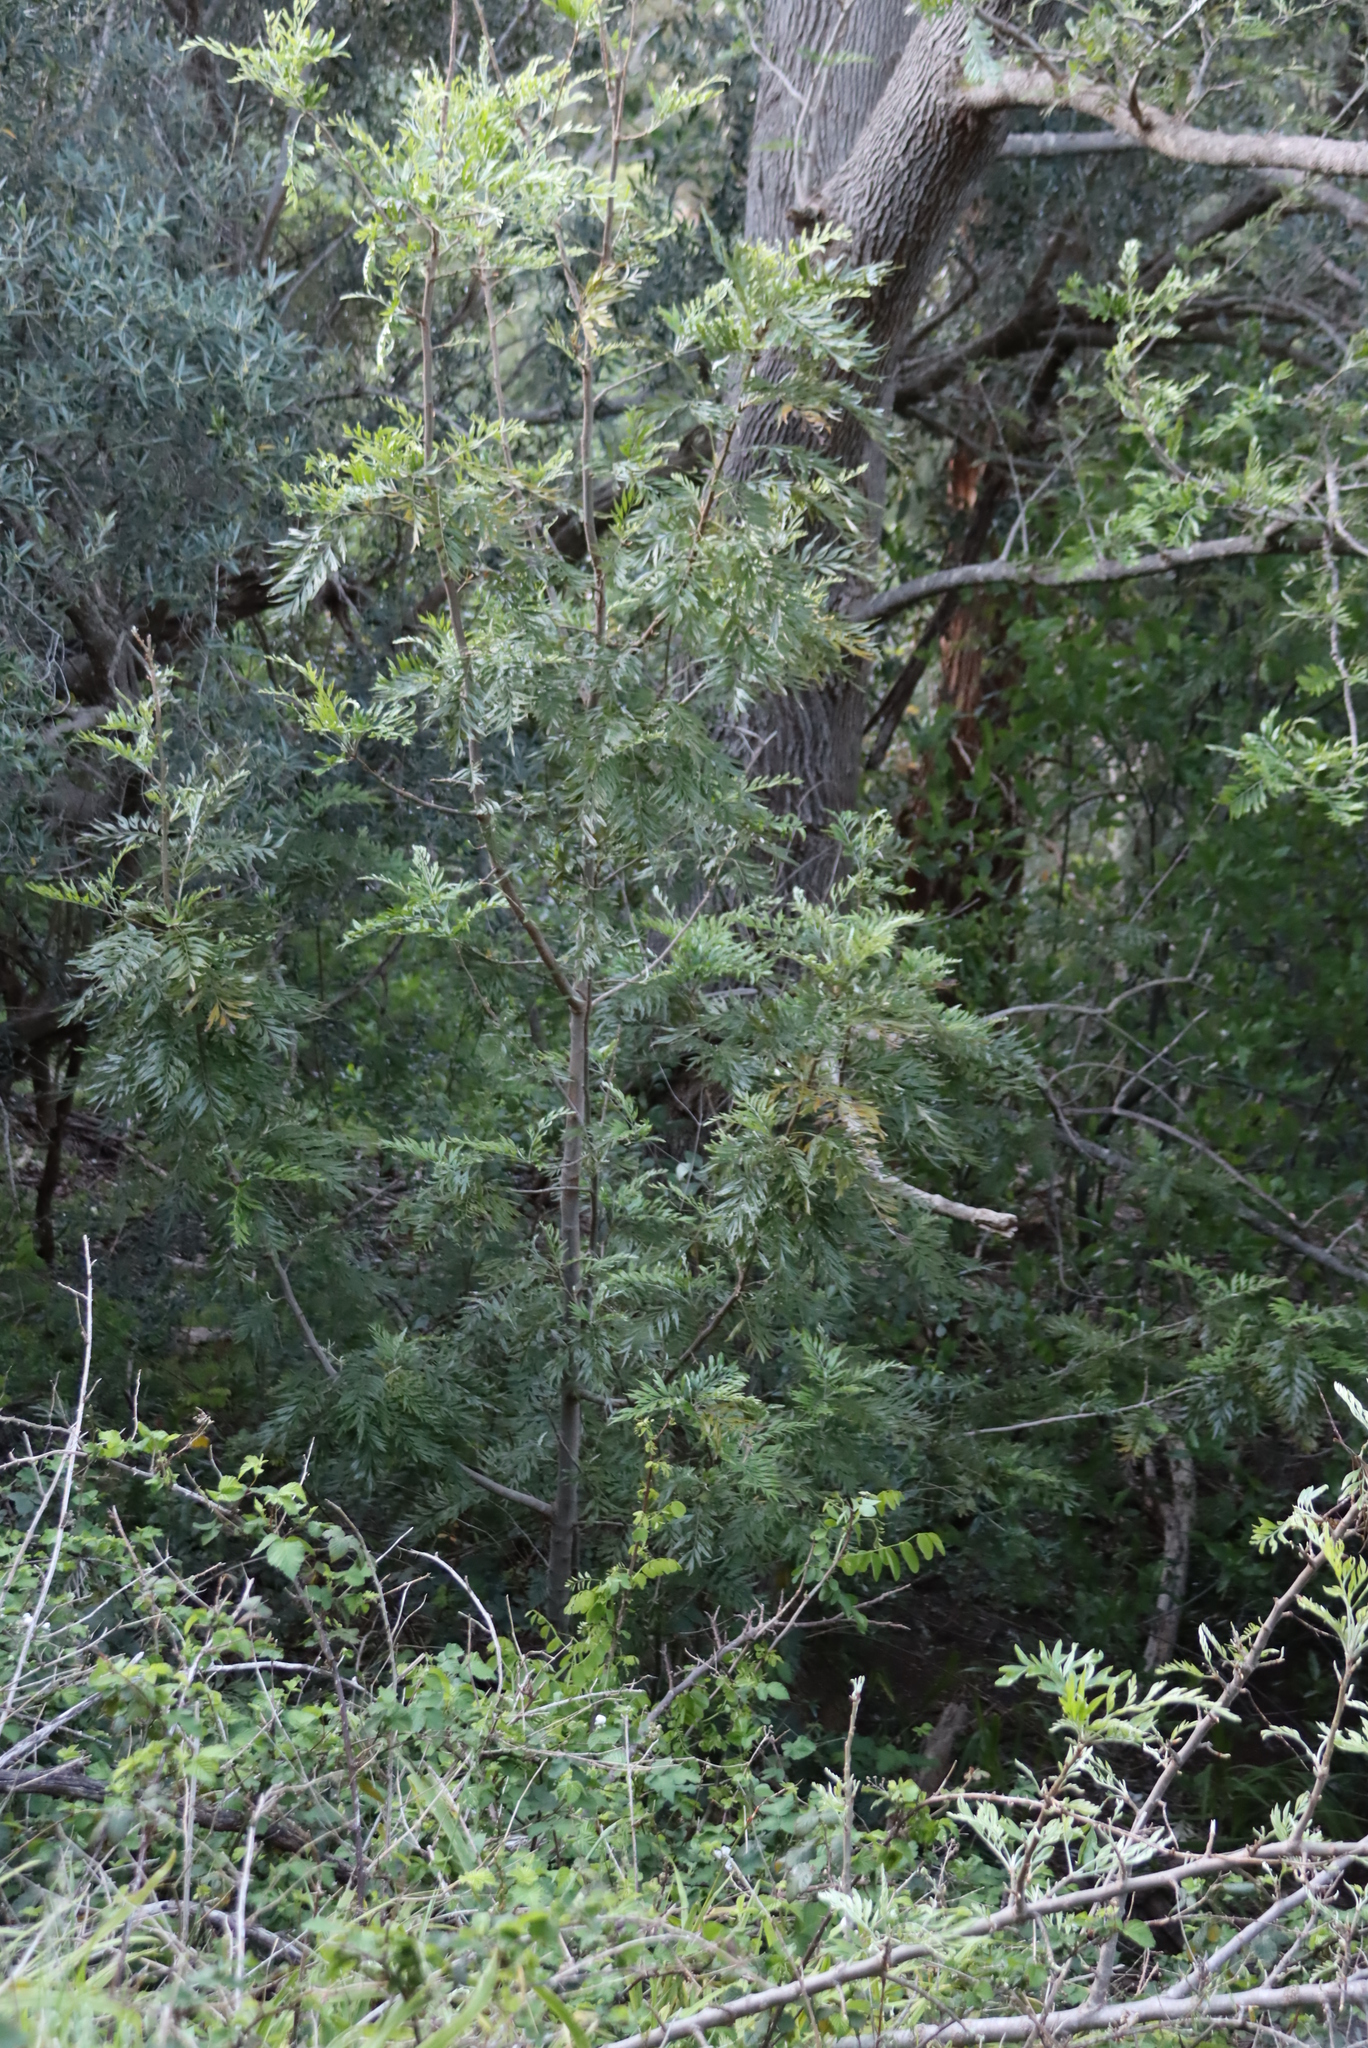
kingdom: Plantae
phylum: Tracheophyta
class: Magnoliopsida
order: Proteales
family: Proteaceae
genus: Grevillea
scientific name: Grevillea robusta
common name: Silkoak
